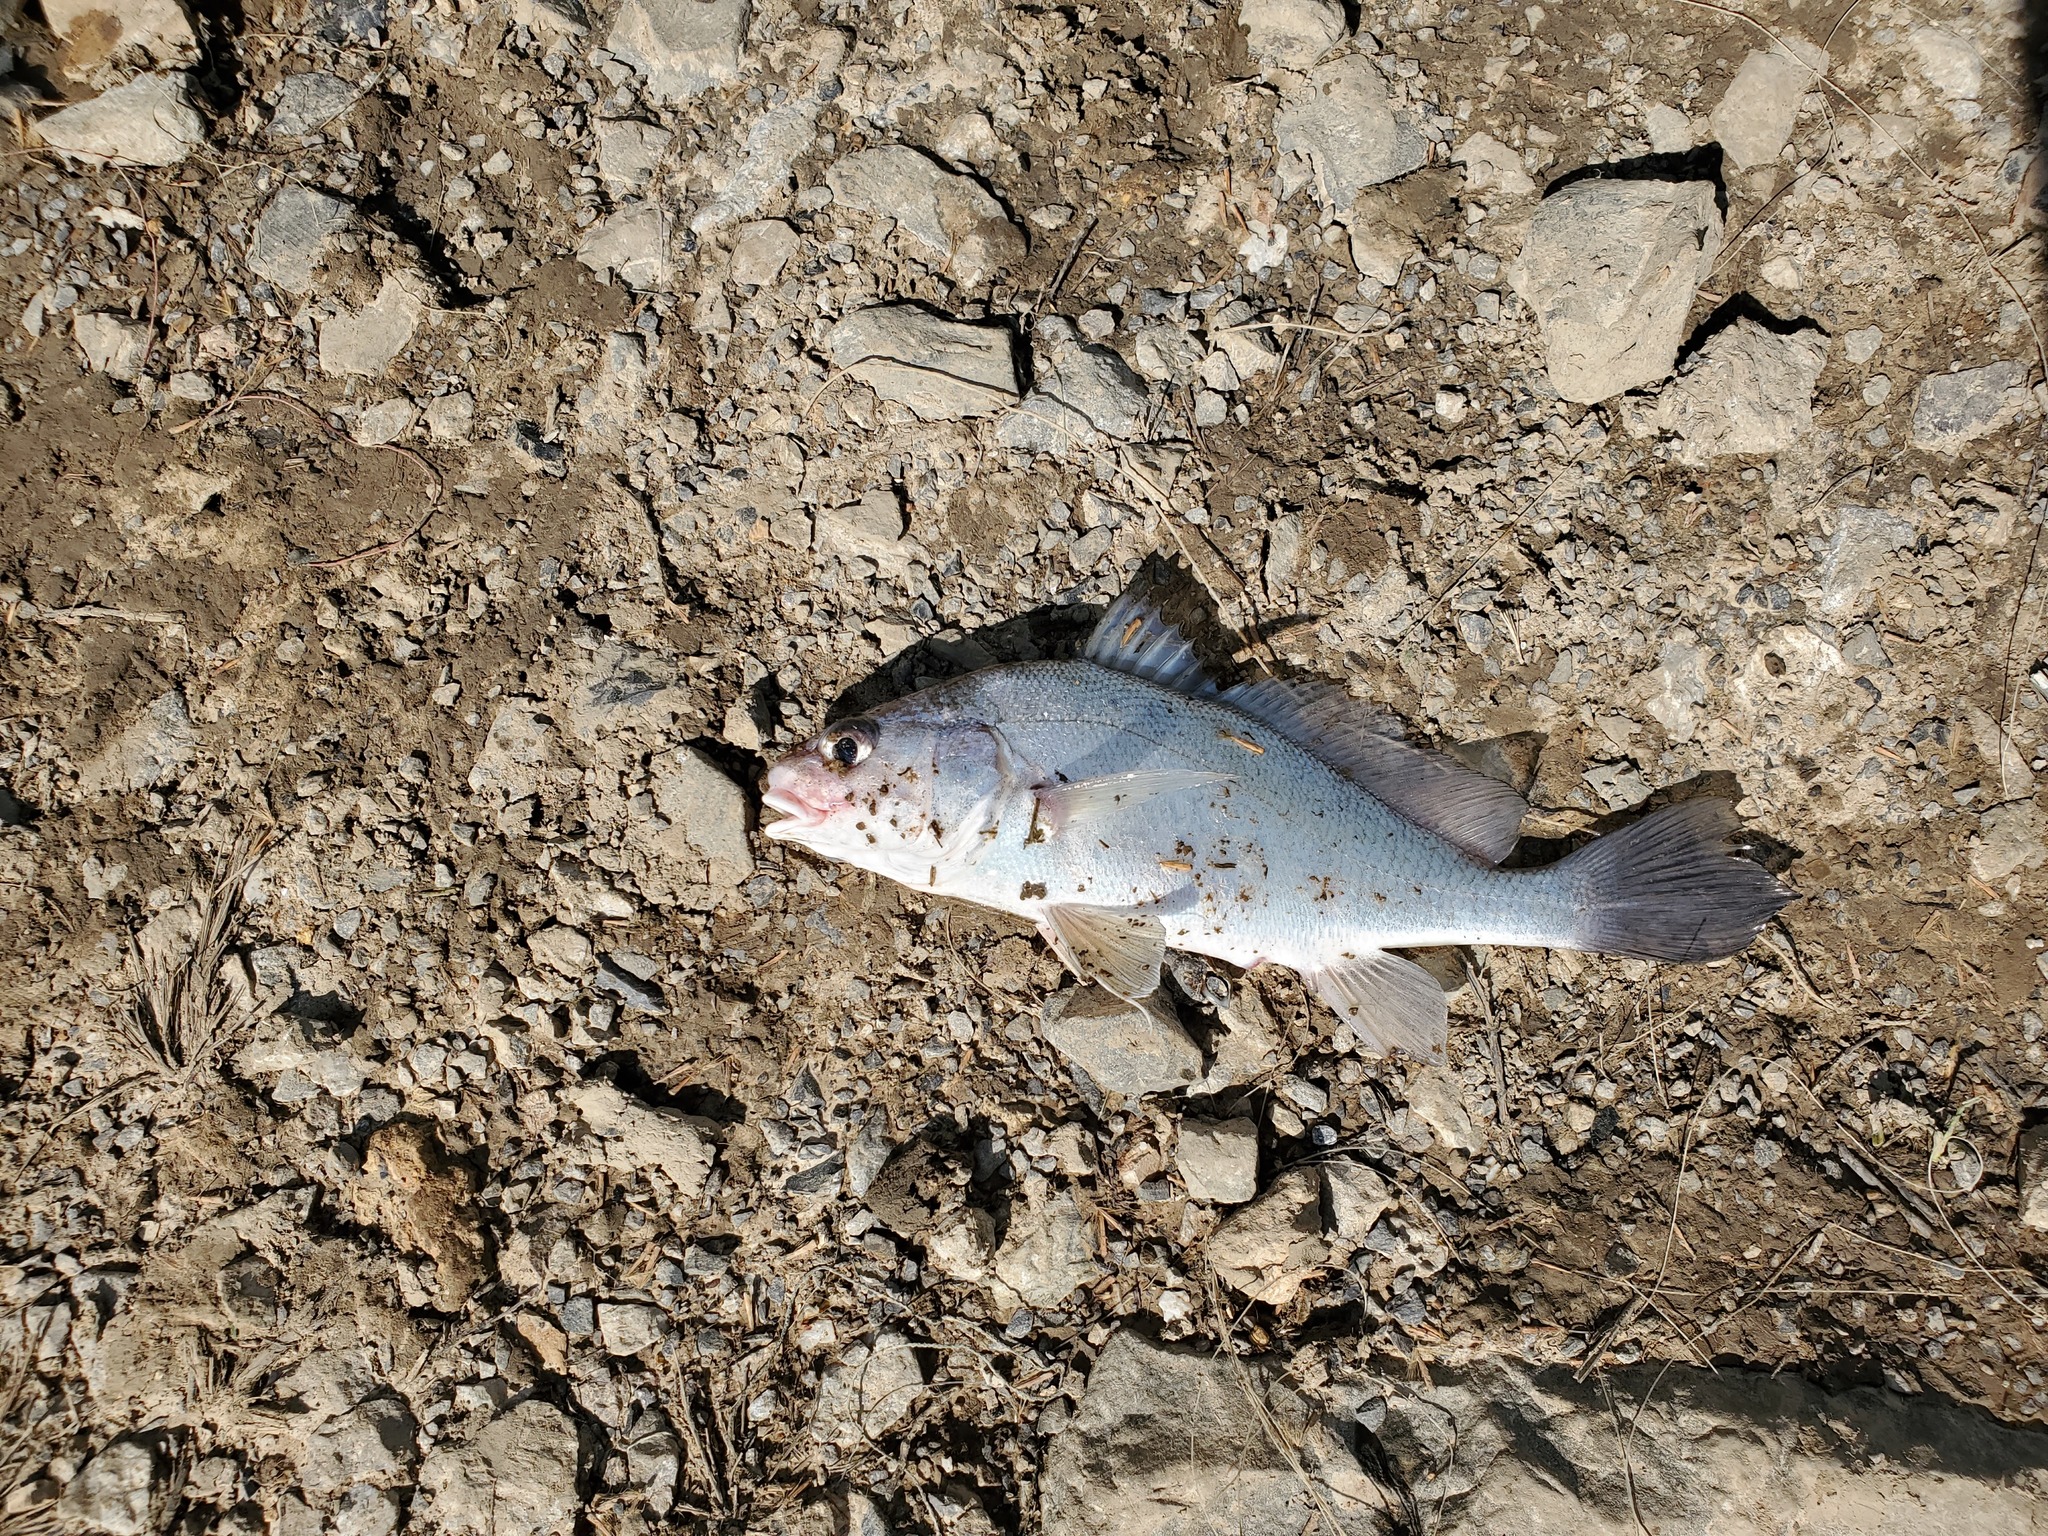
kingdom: Animalia
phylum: Chordata
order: Perciformes
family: Sciaenidae
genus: Aplodinotus
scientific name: Aplodinotus grunniens
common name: Freshwater drum
